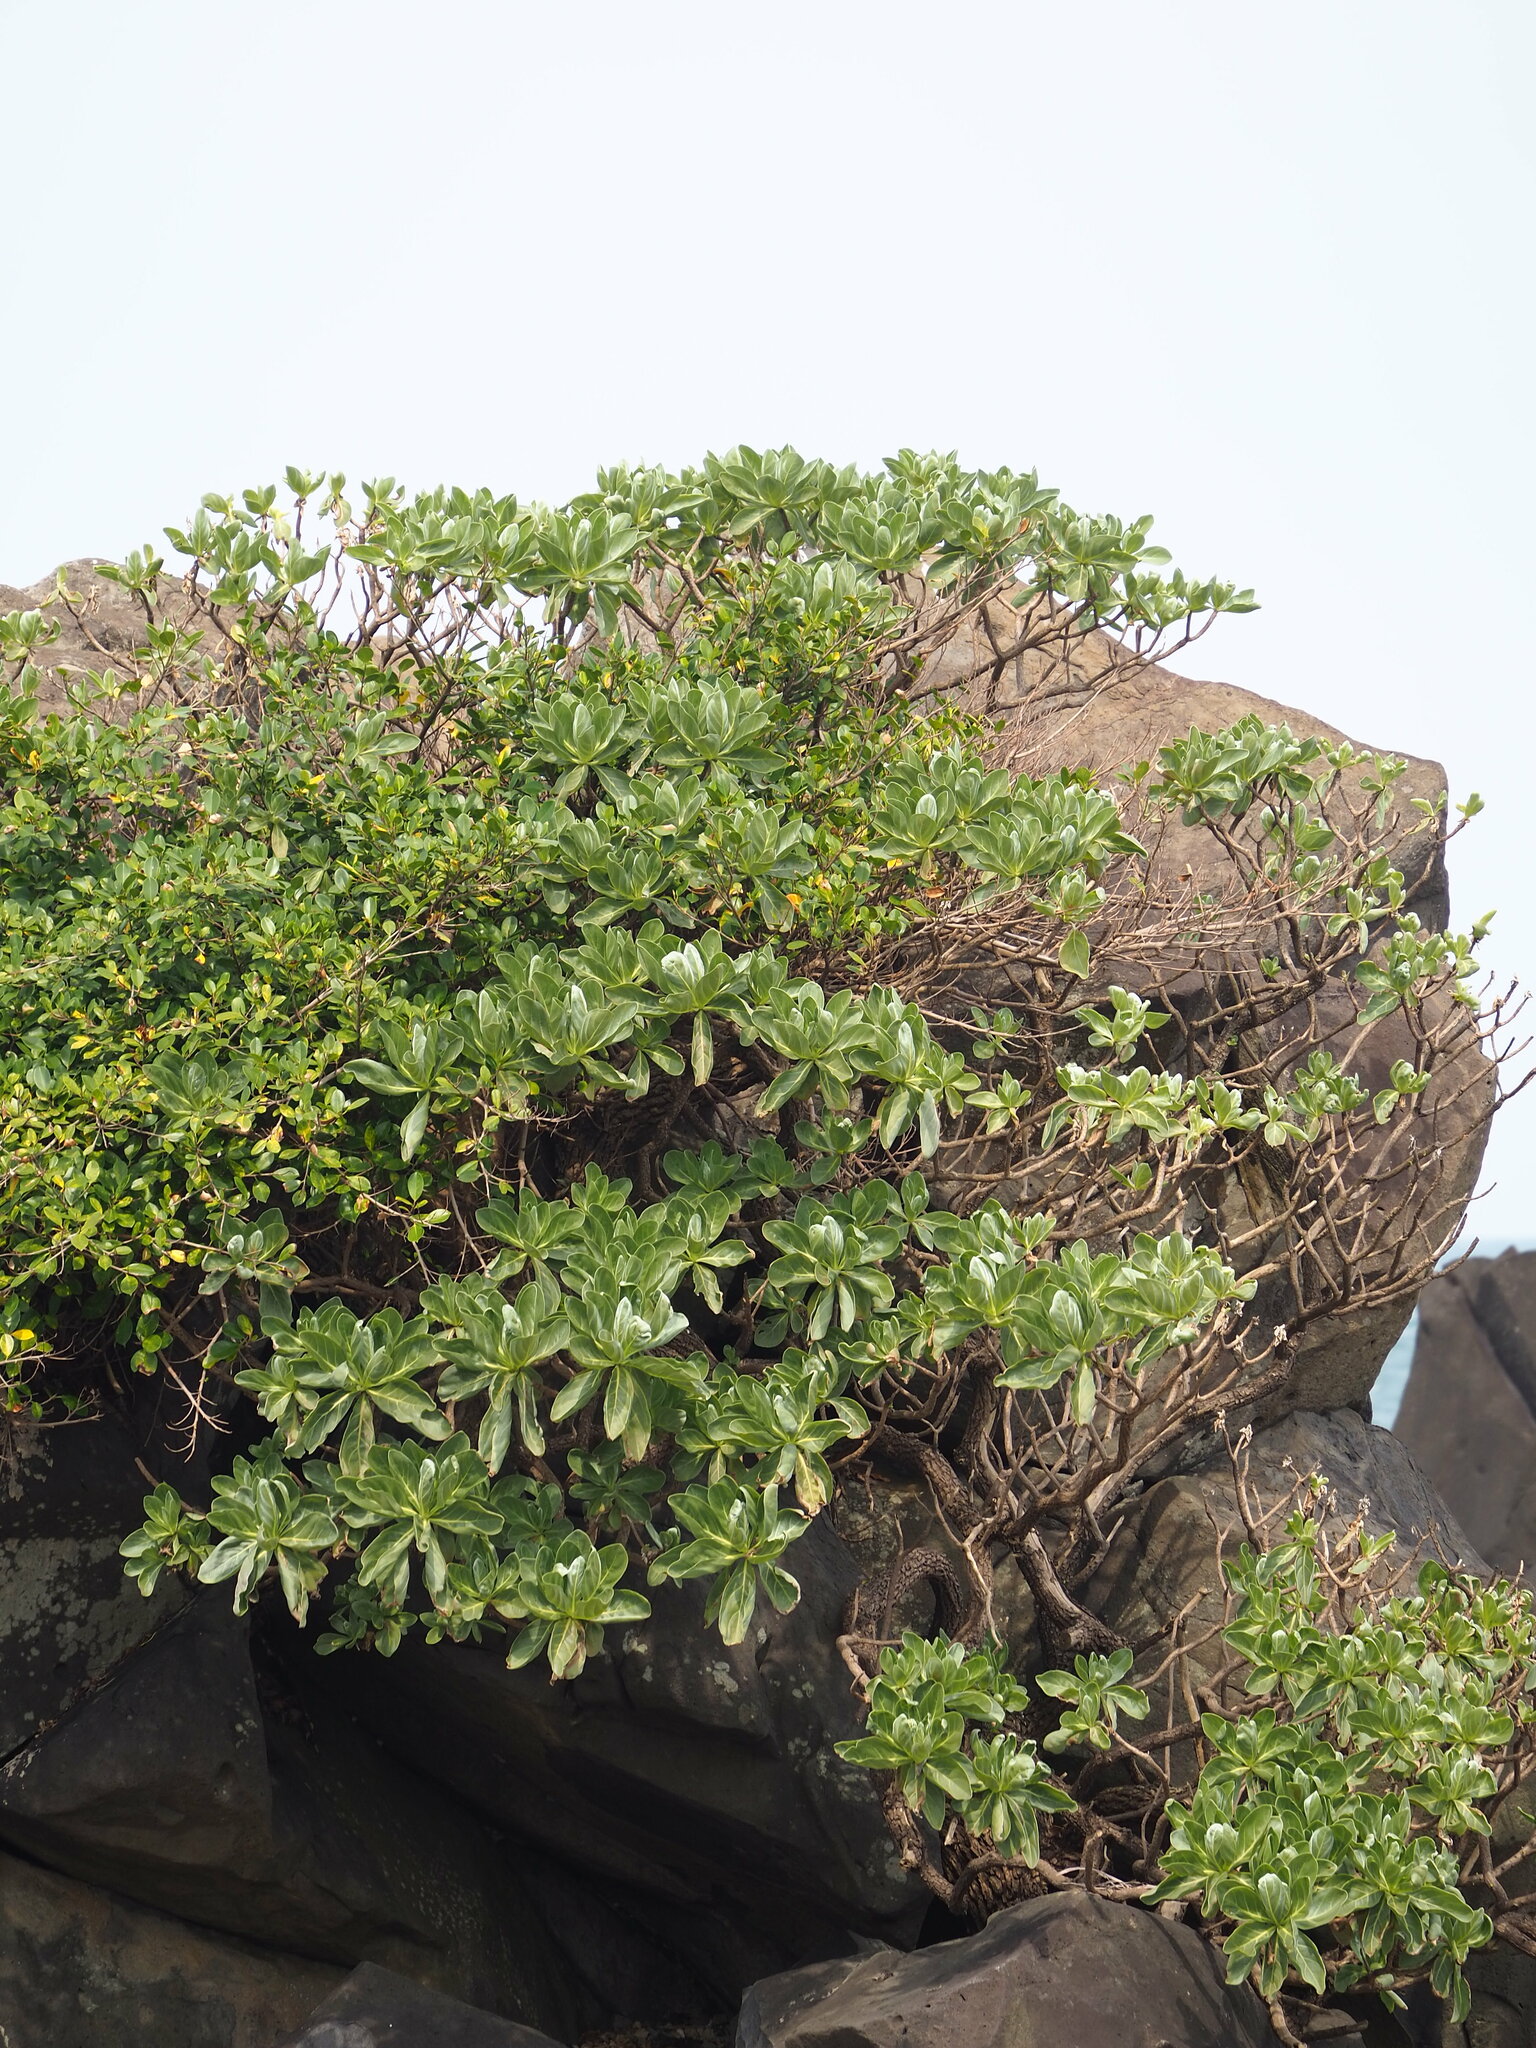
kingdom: Plantae
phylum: Tracheophyta
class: Magnoliopsida
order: Boraginales
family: Heliotropiaceae
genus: Heliotropium
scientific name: Heliotropium velutinum
